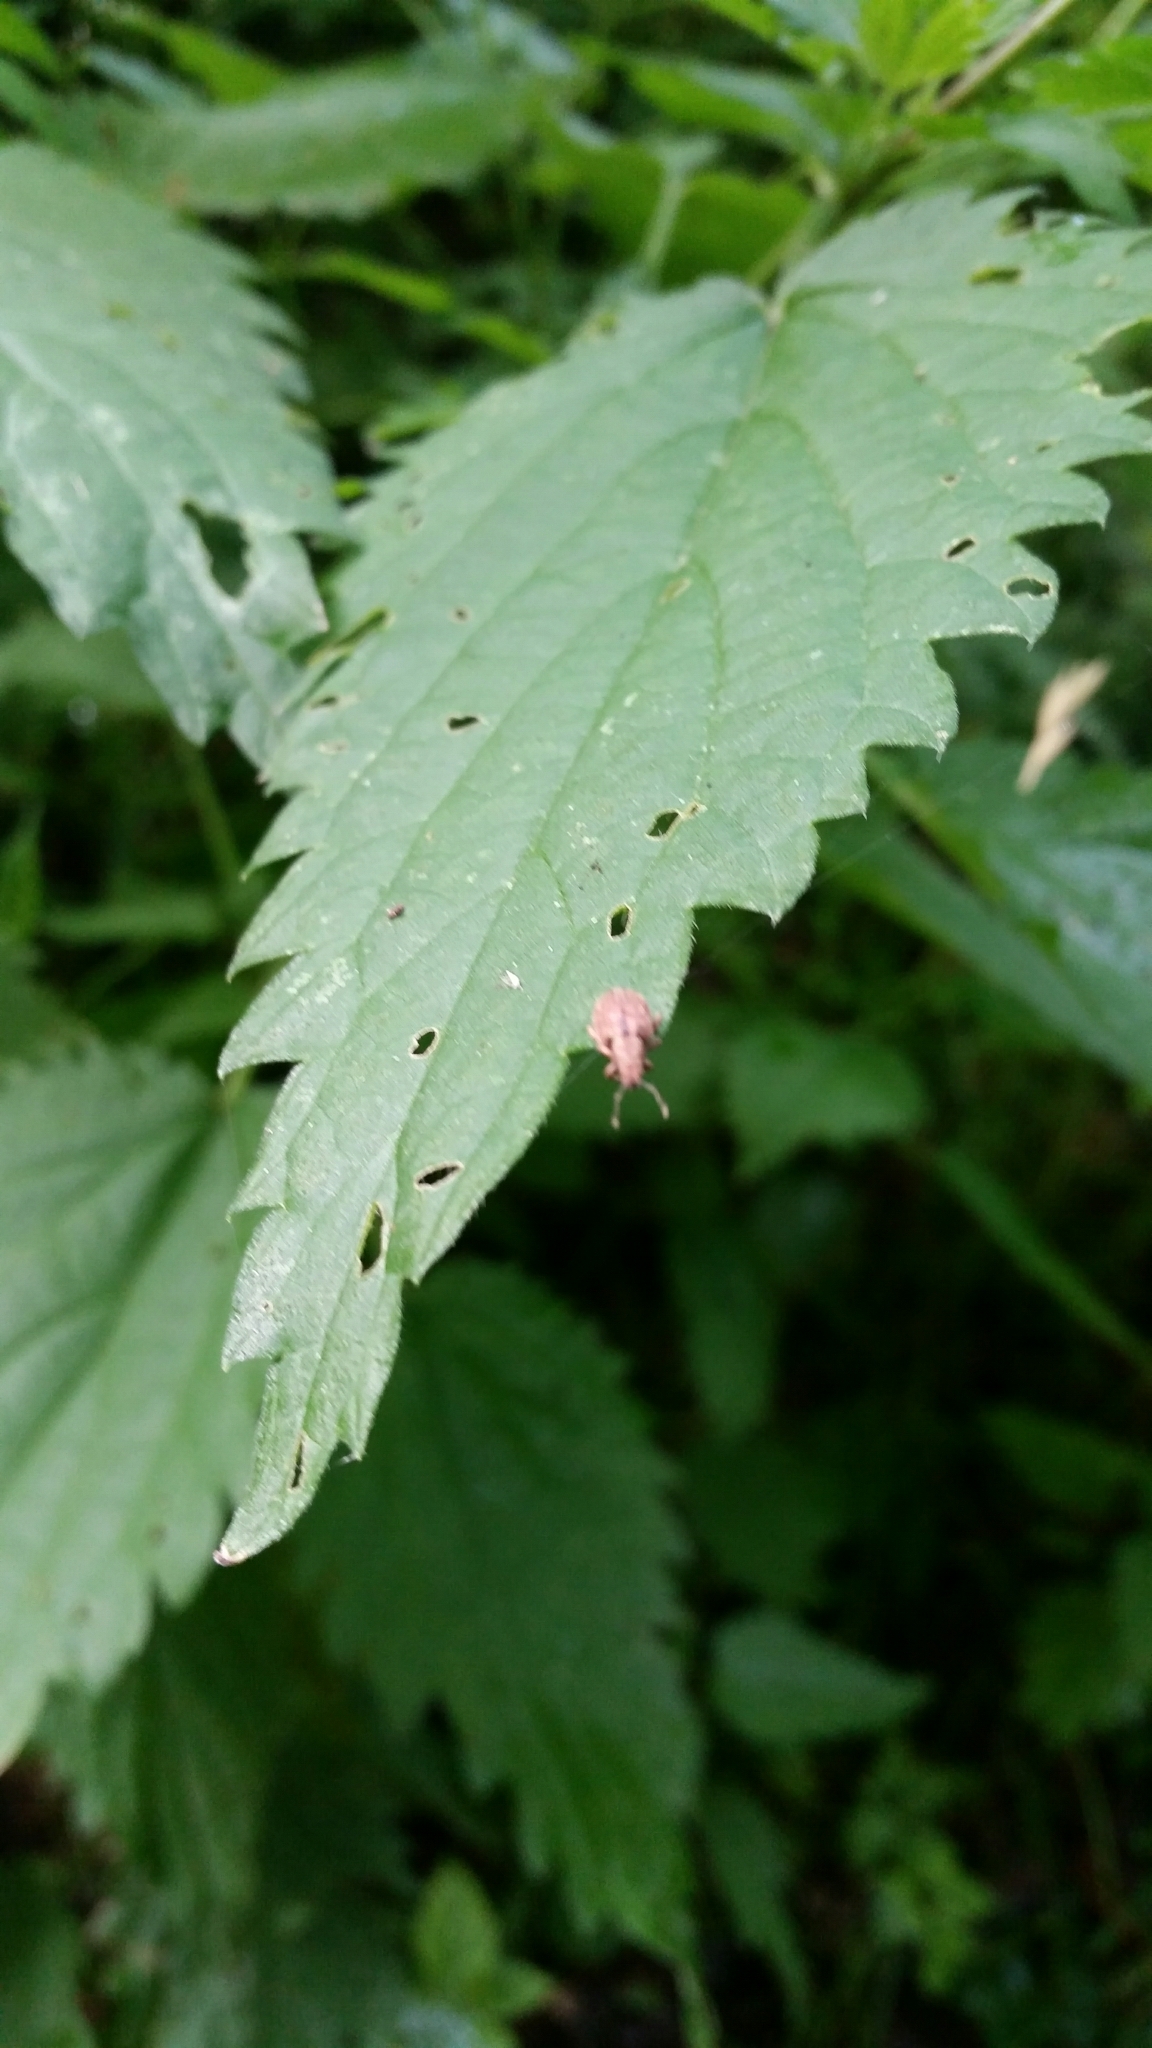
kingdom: Animalia
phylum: Arthropoda
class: Insecta
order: Coleoptera
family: Curculionidae
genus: Strophosoma
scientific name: Strophosoma melanogrammum
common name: Weevil
